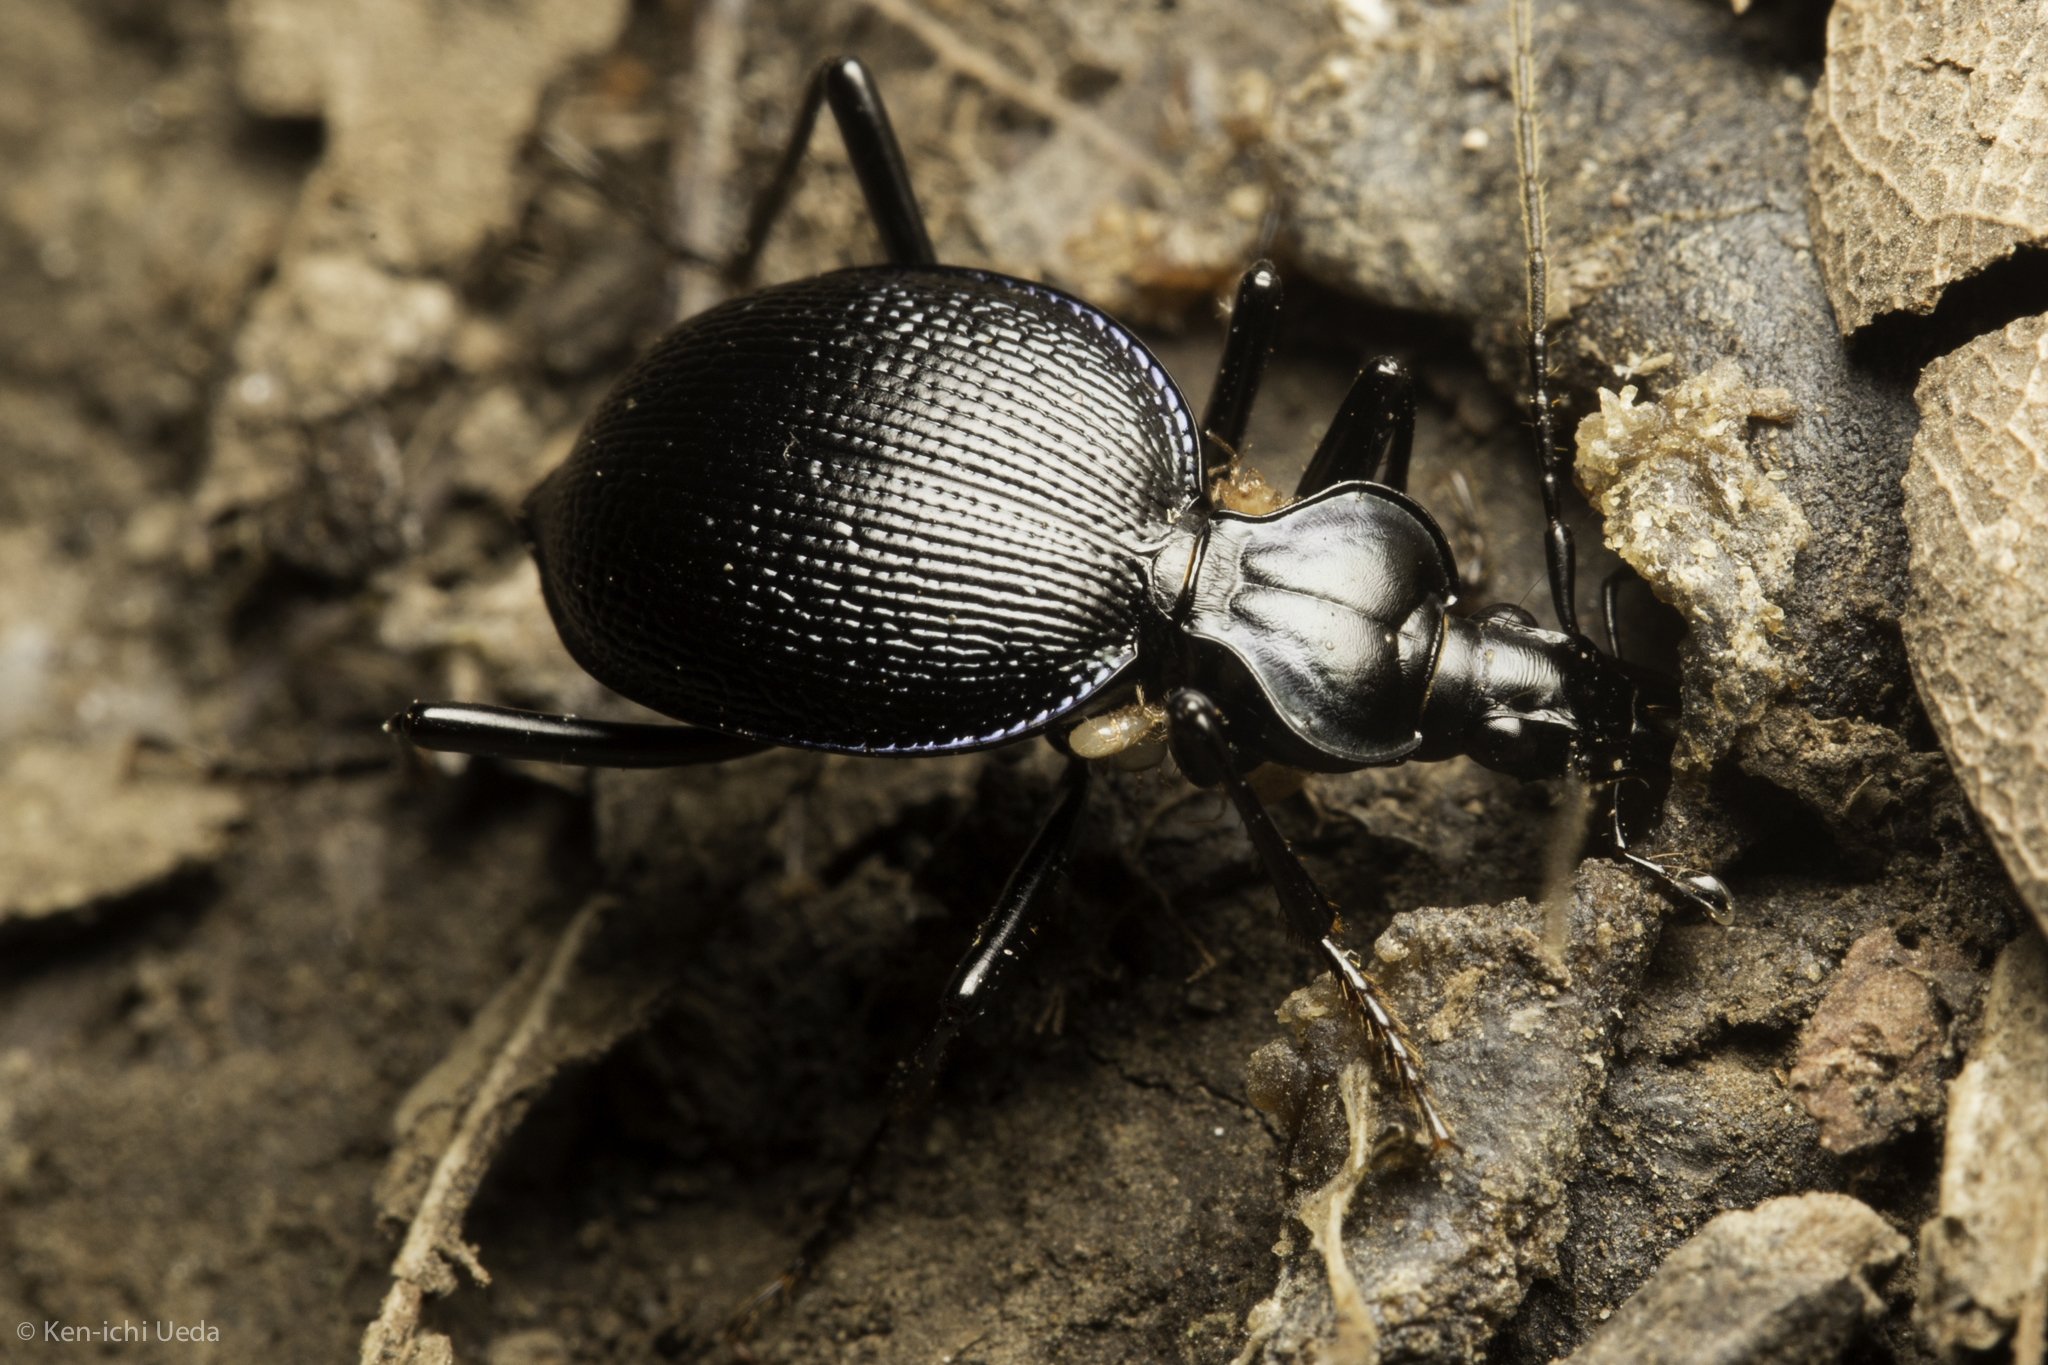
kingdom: Animalia
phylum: Arthropoda
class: Insecta
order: Coleoptera
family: Carabidae
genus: Scaphinotus
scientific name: Scaphinotus interruptus
